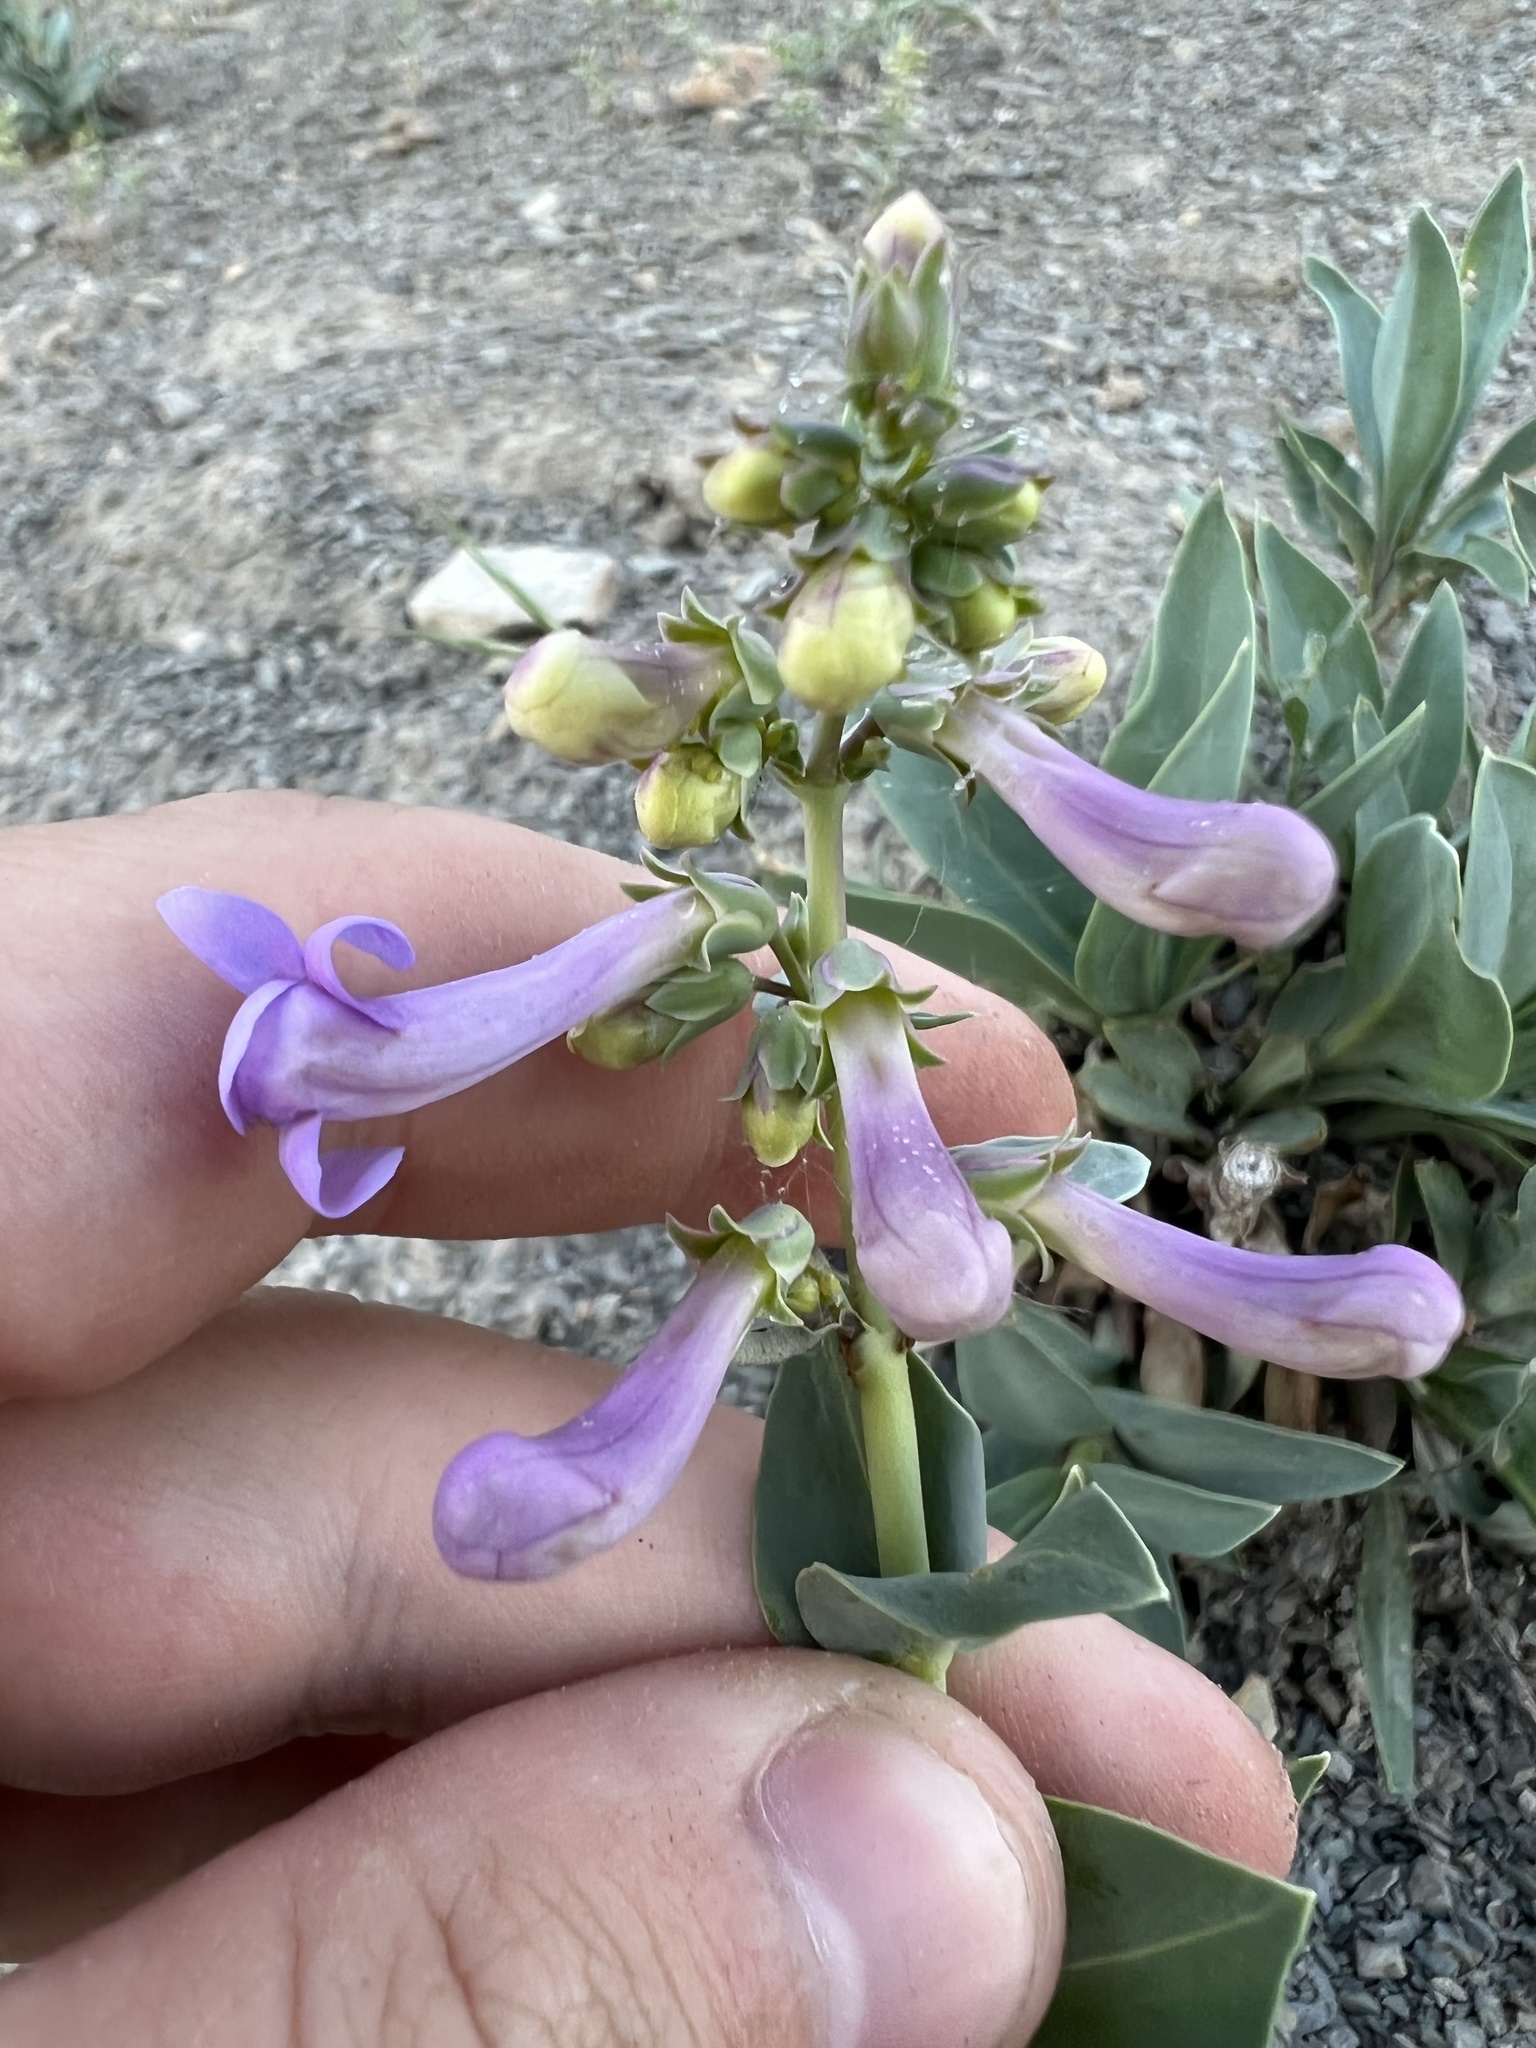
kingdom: Plantae
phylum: Tracheophyta
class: Magnoliopsida
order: Lamiales
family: Plantaginaceae
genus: Penstemon
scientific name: Penstemon secundiflorus
